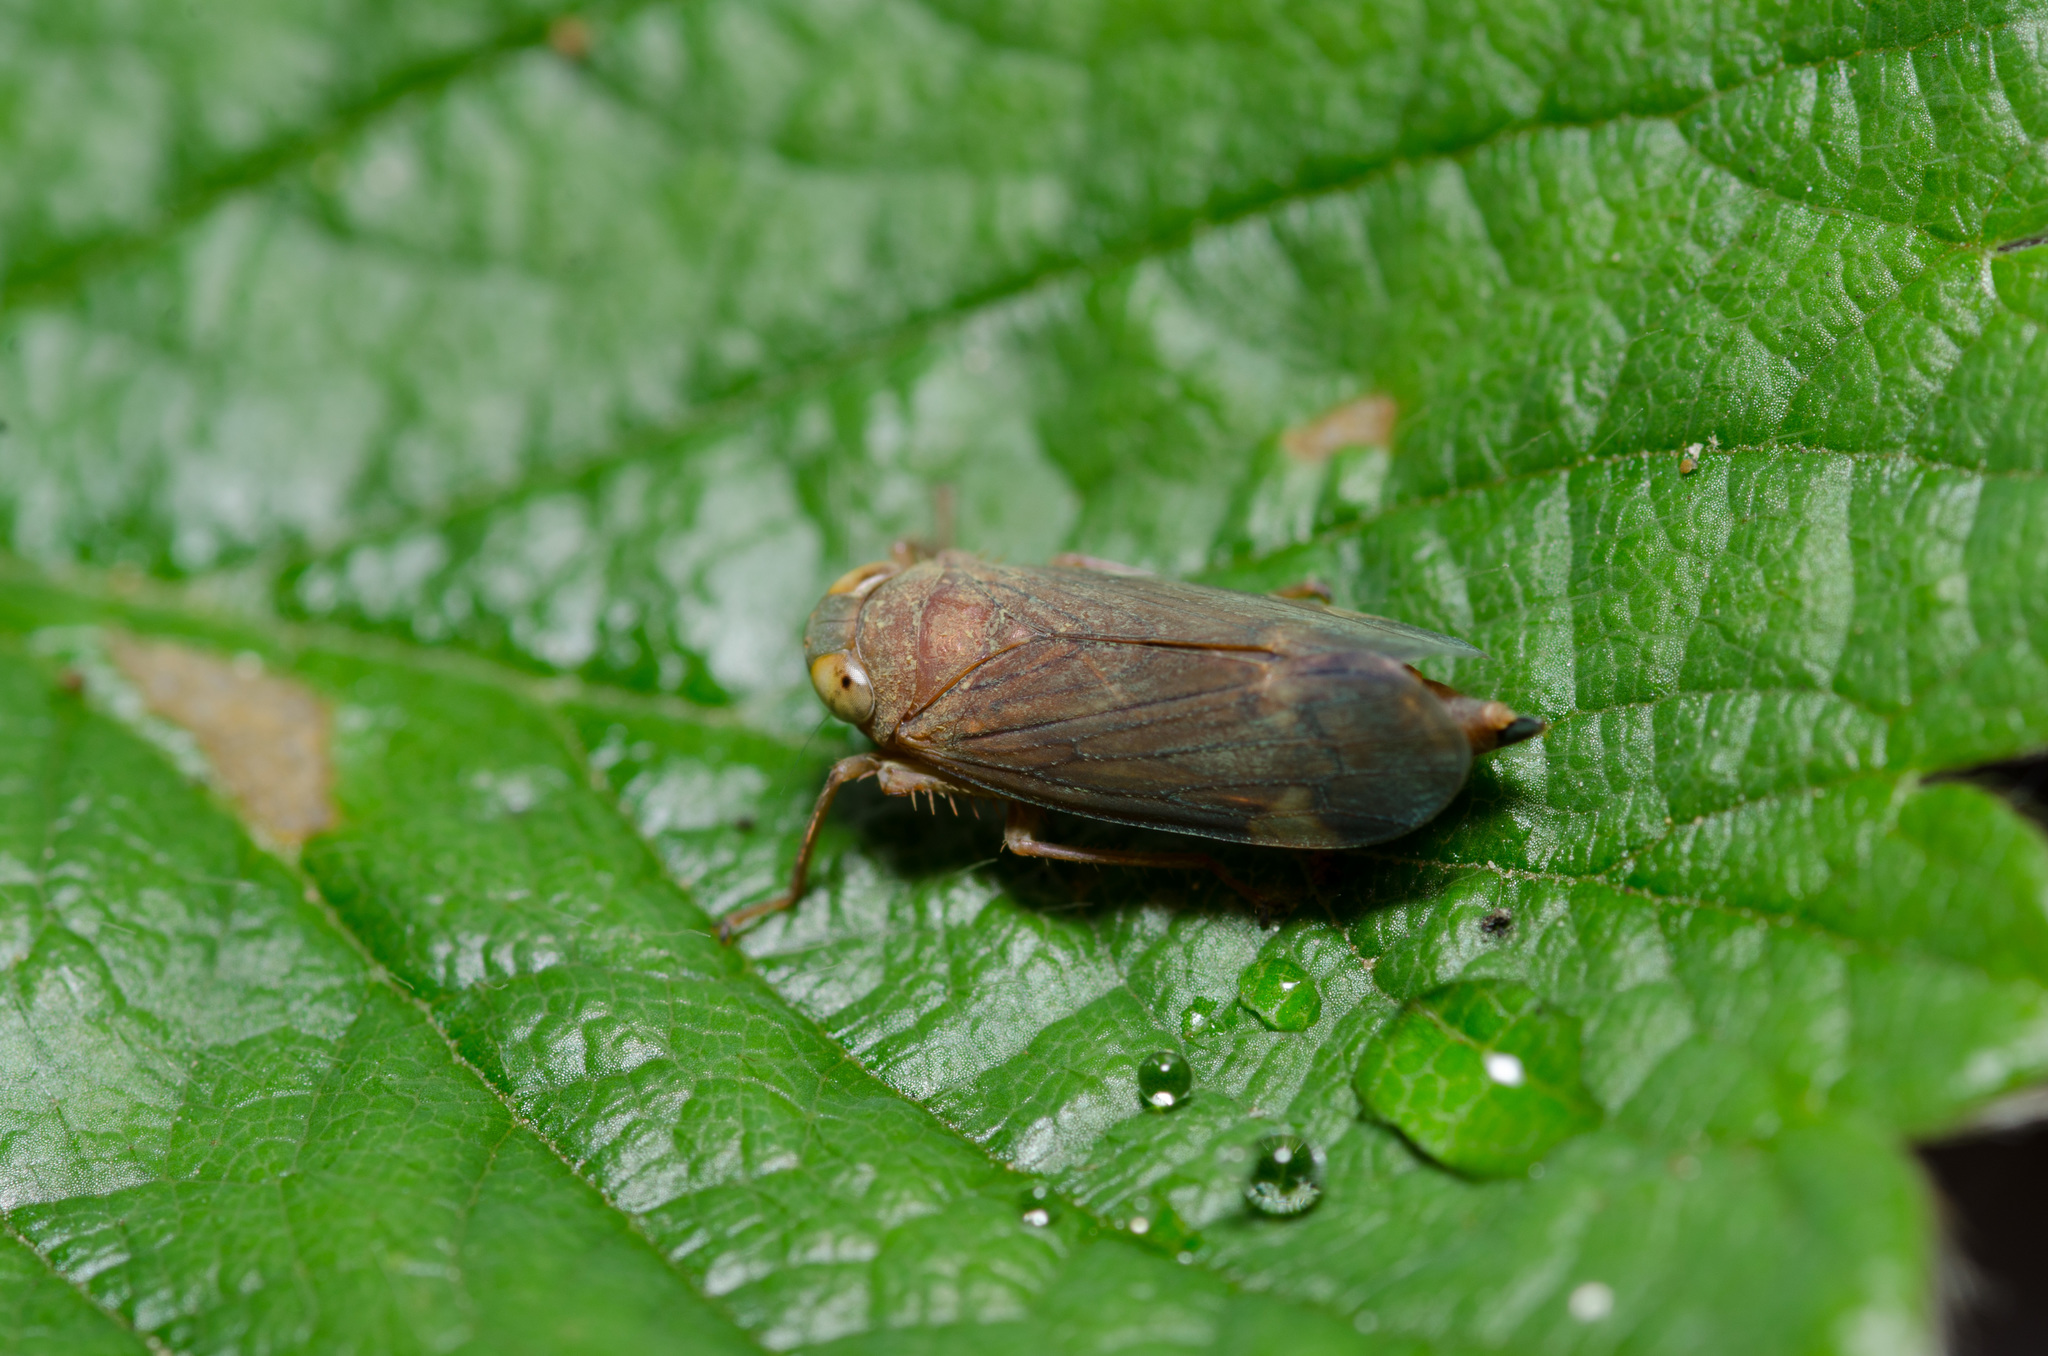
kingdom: Animalia
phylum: Arthropoda
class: Insecta
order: Hemiptera
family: Cicadellidae
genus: Jikradia
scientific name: Jikradia olitoria
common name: Coppery leafhopper
